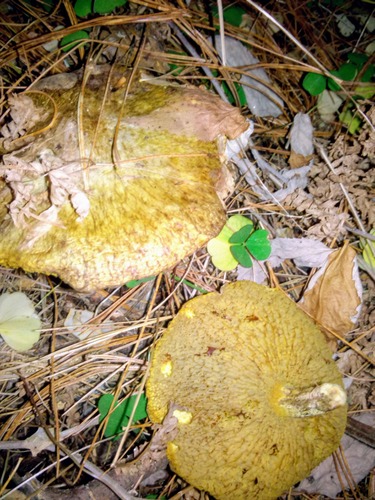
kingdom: Fungi
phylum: Basidiomycota
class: Agaricomycetes
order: Boletales
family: Suillaceae
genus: Suillus
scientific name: Suillus americanus
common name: Chicken fat mushroom
